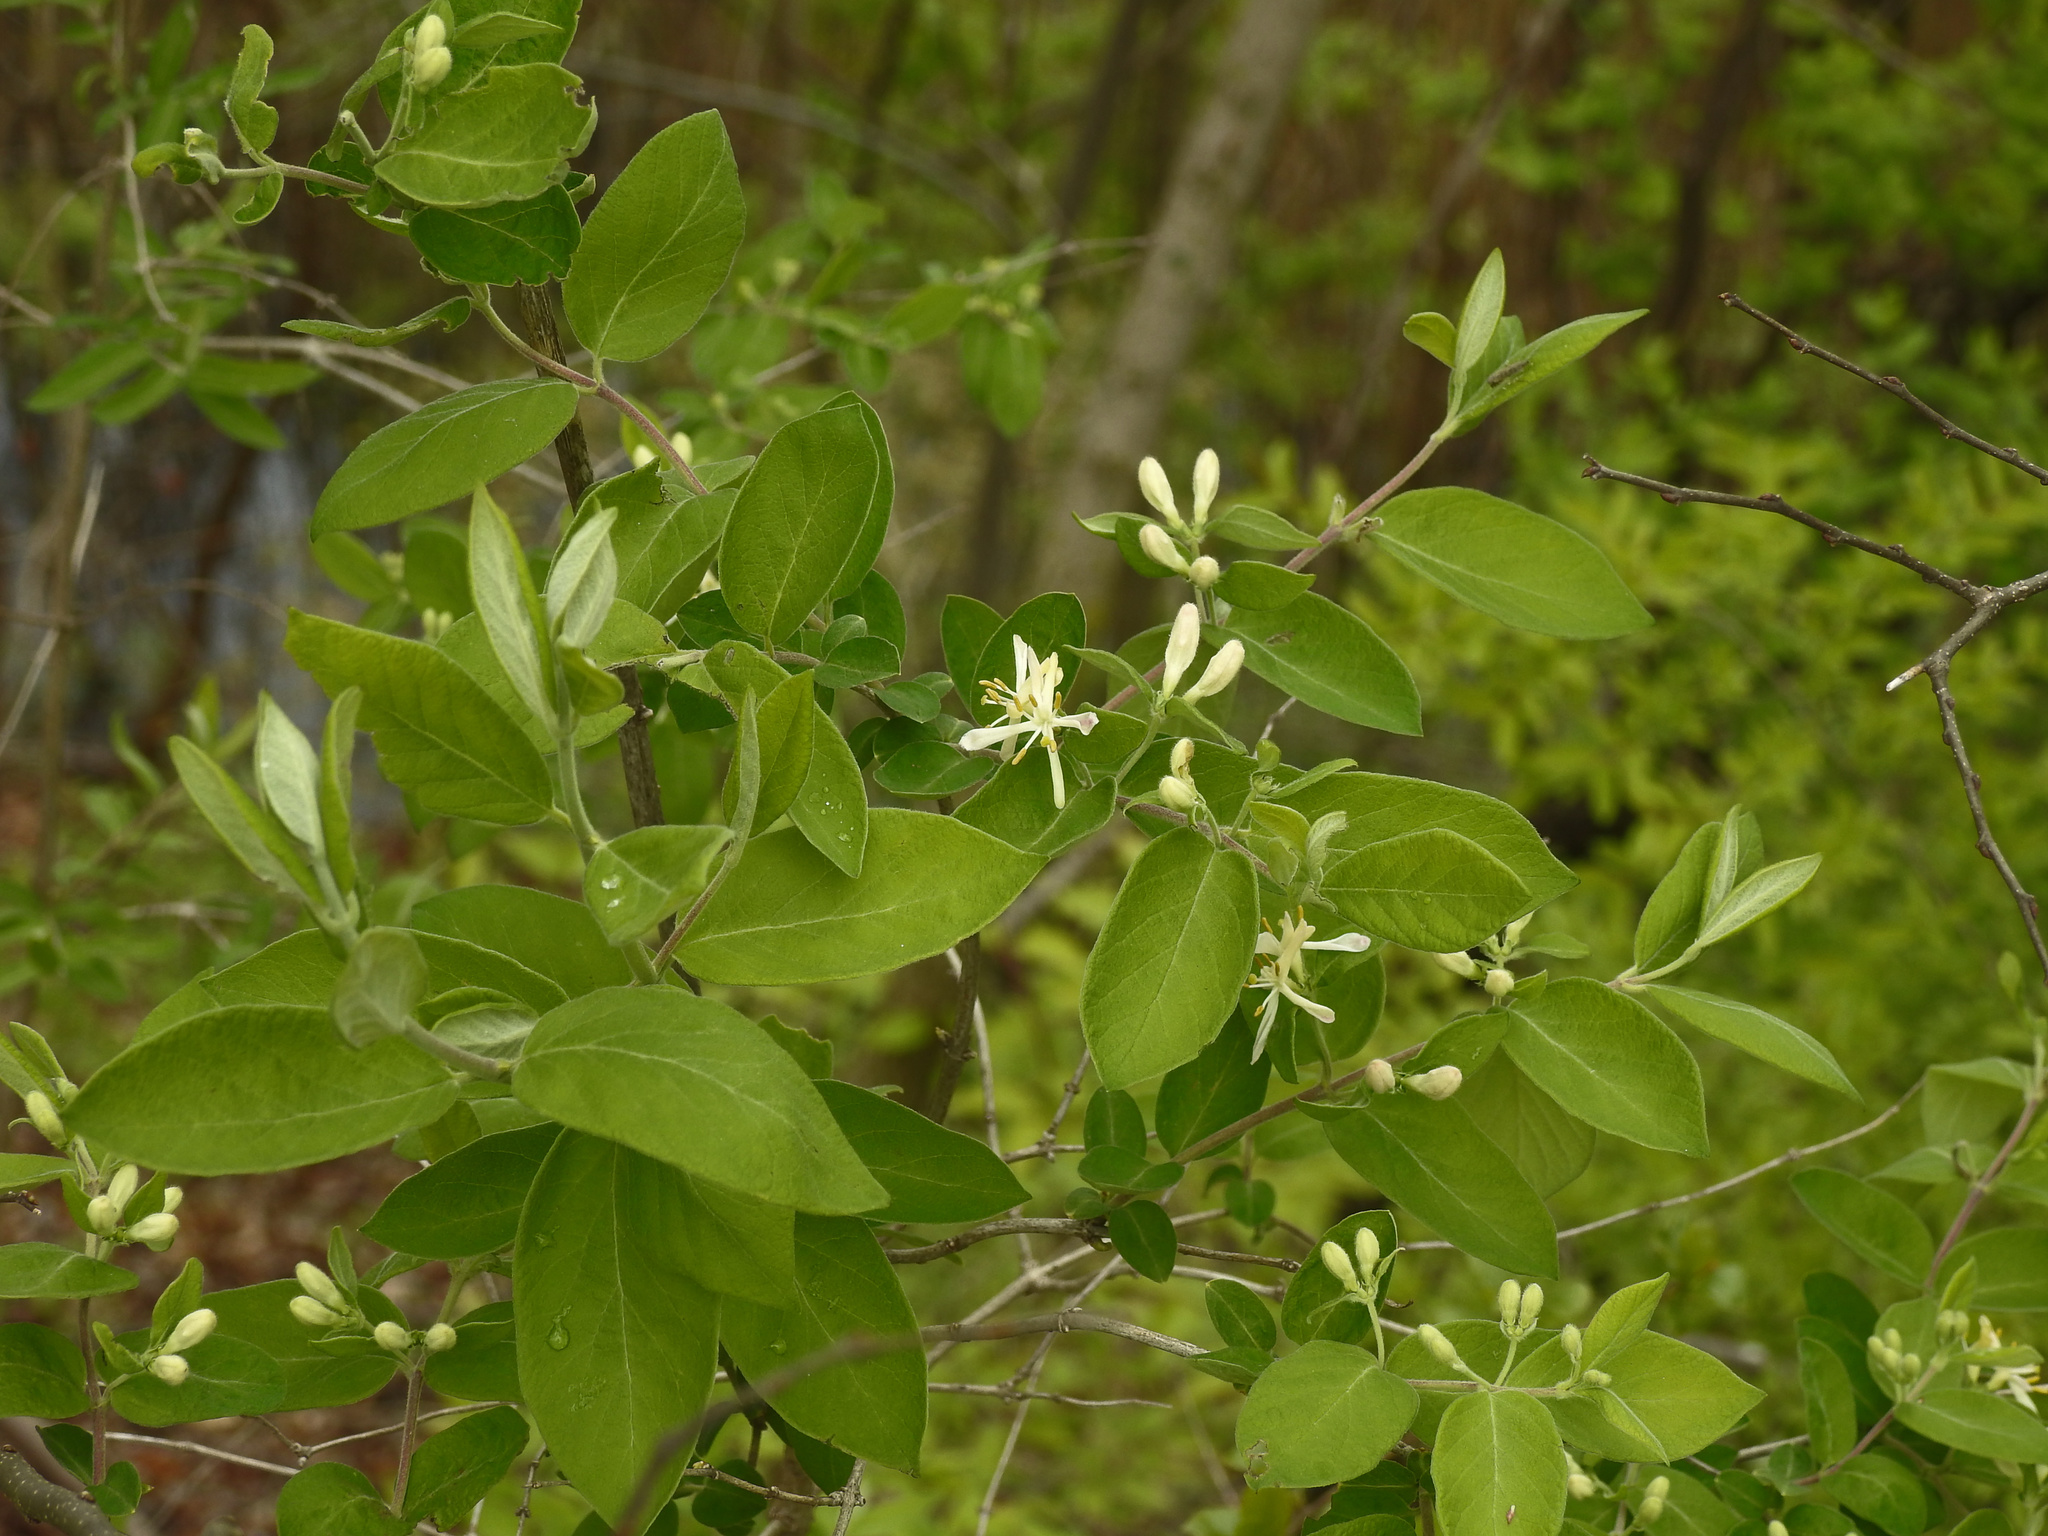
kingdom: Plantae
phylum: Tracheophyta
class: Magnoliopsida
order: Dipsacales
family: Caprifoliaceae
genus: Lonicera
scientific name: Lonicera morrowii
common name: Morrow's honeysuckle
